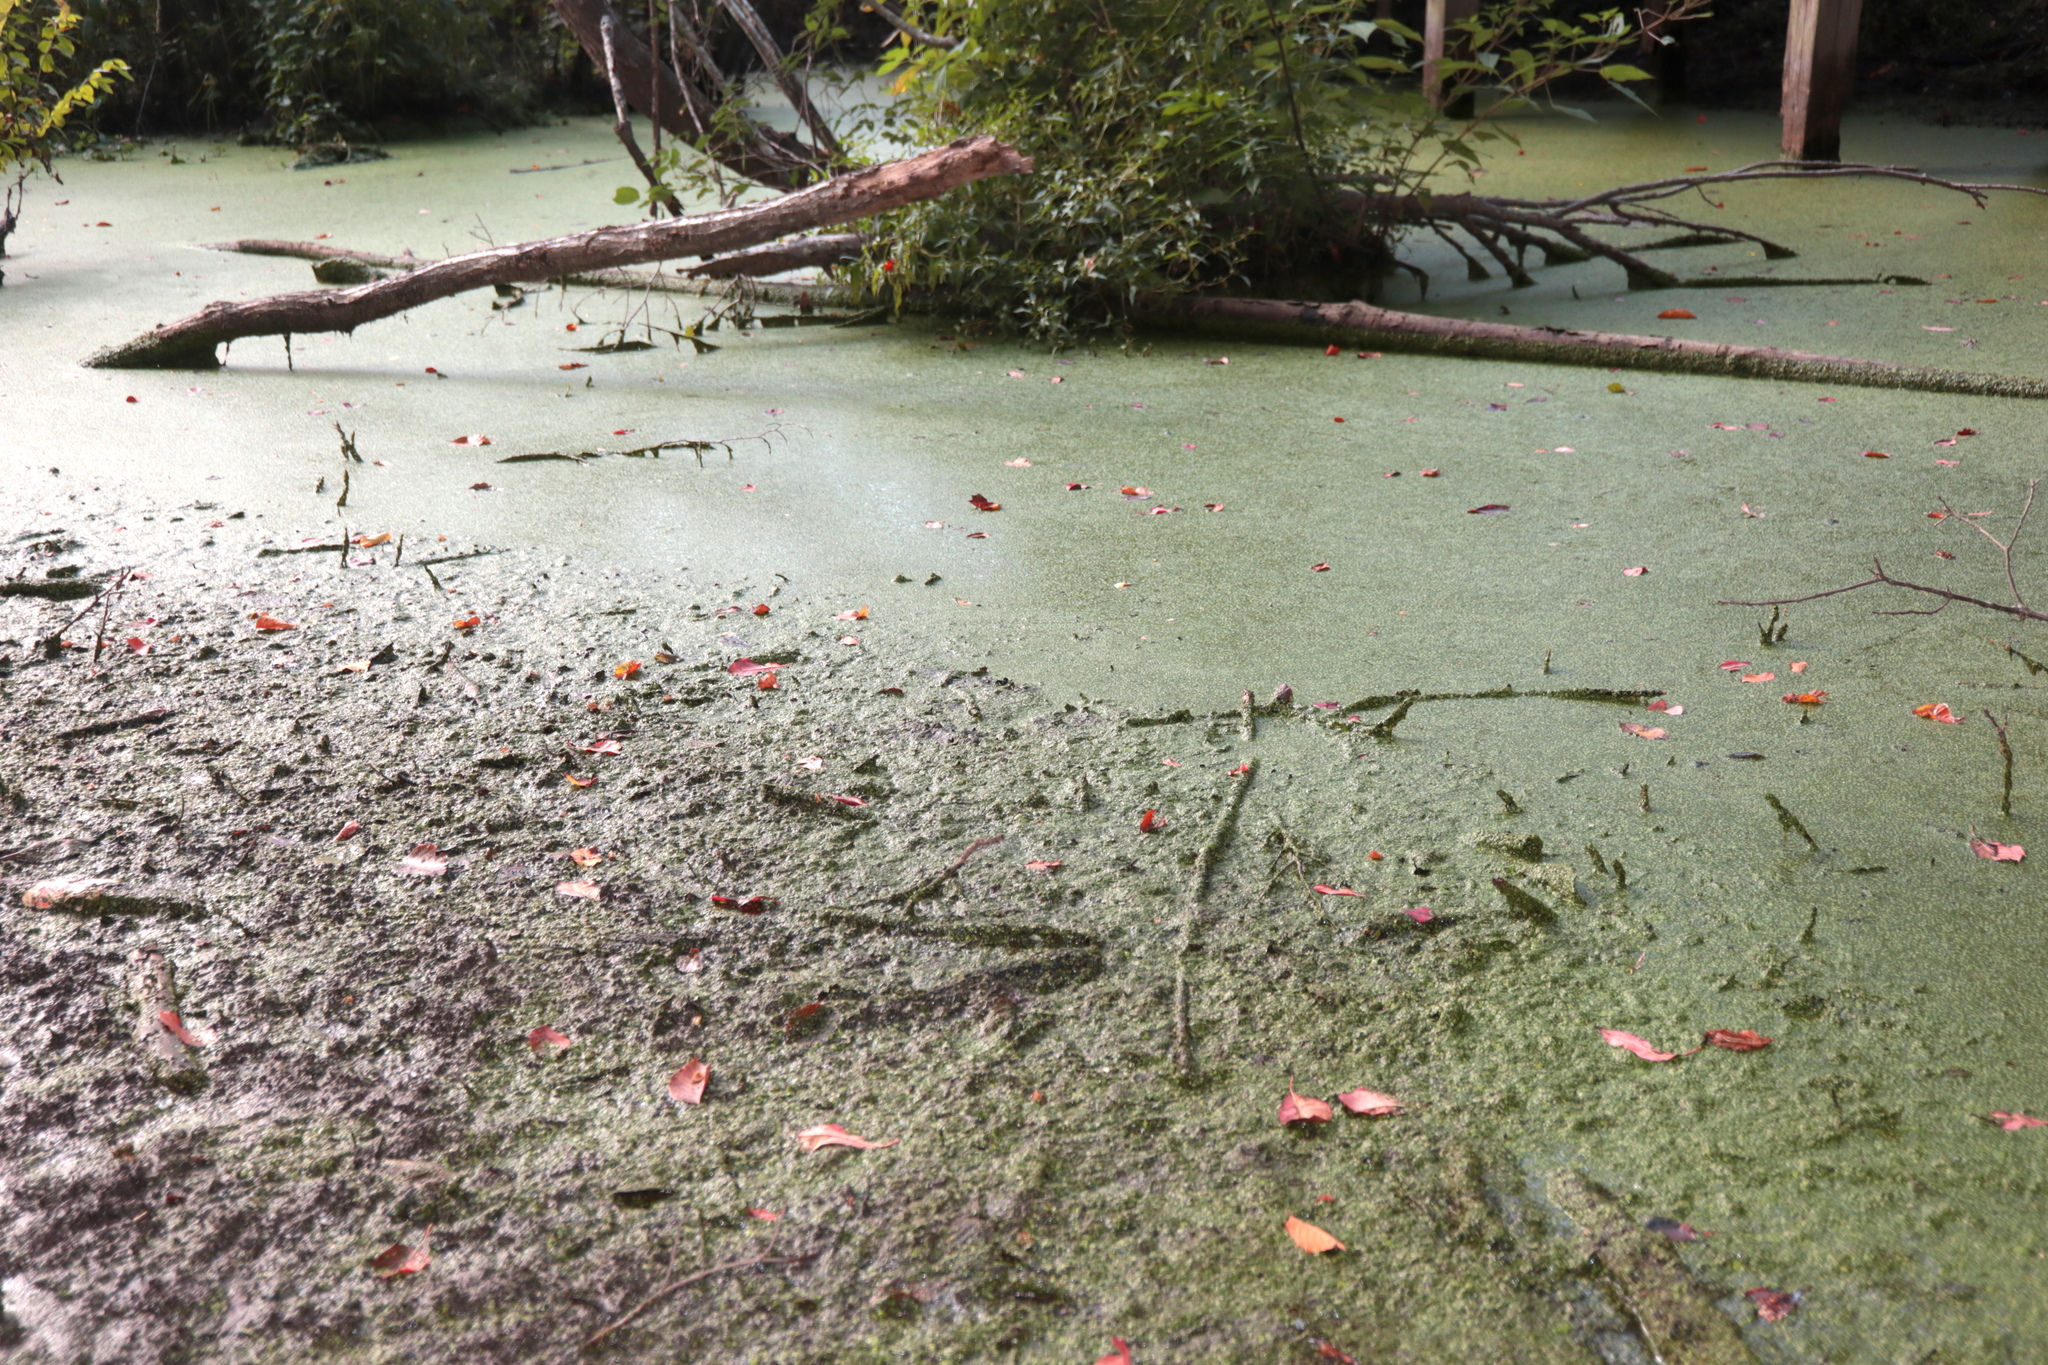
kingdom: Plantae
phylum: Tracheophyta
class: Liliopsida
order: Alismatales
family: Araceae
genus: Lemna
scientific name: Lemna minor
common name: Common duckweed
